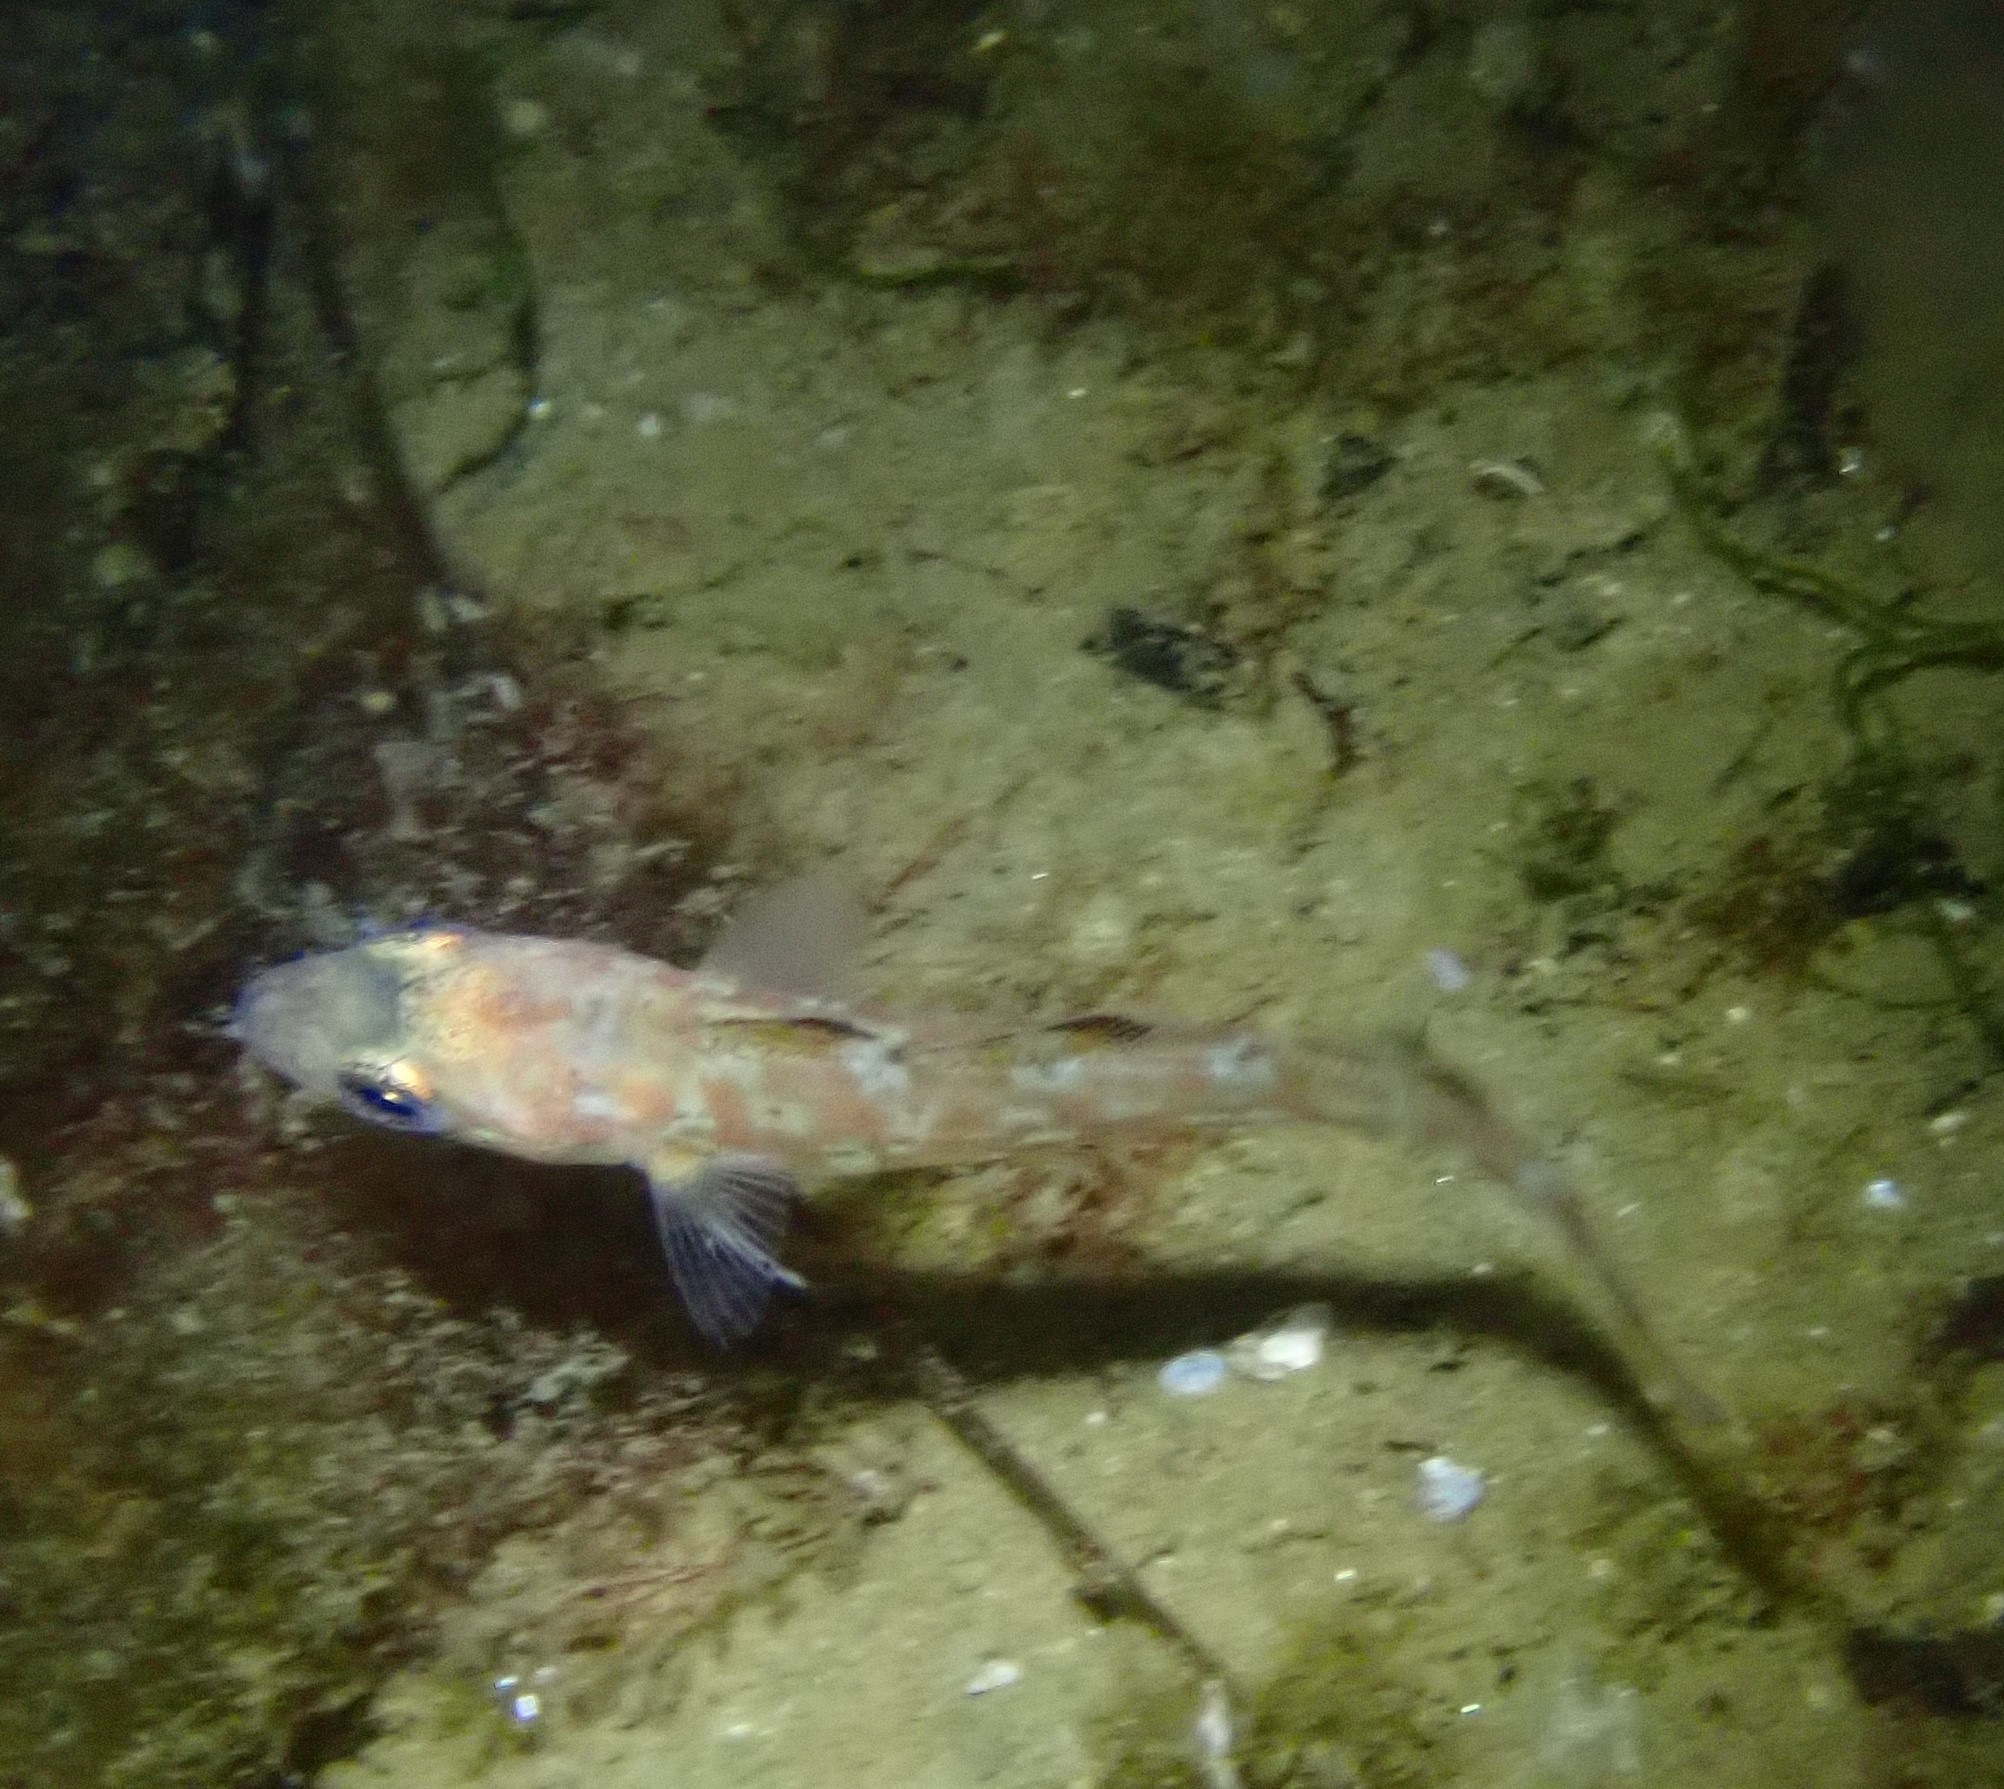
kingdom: Animalia
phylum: Chordata
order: Gadiformes
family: Gadidae
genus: Gadus
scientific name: Gadus morhua
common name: Atlantic cod
